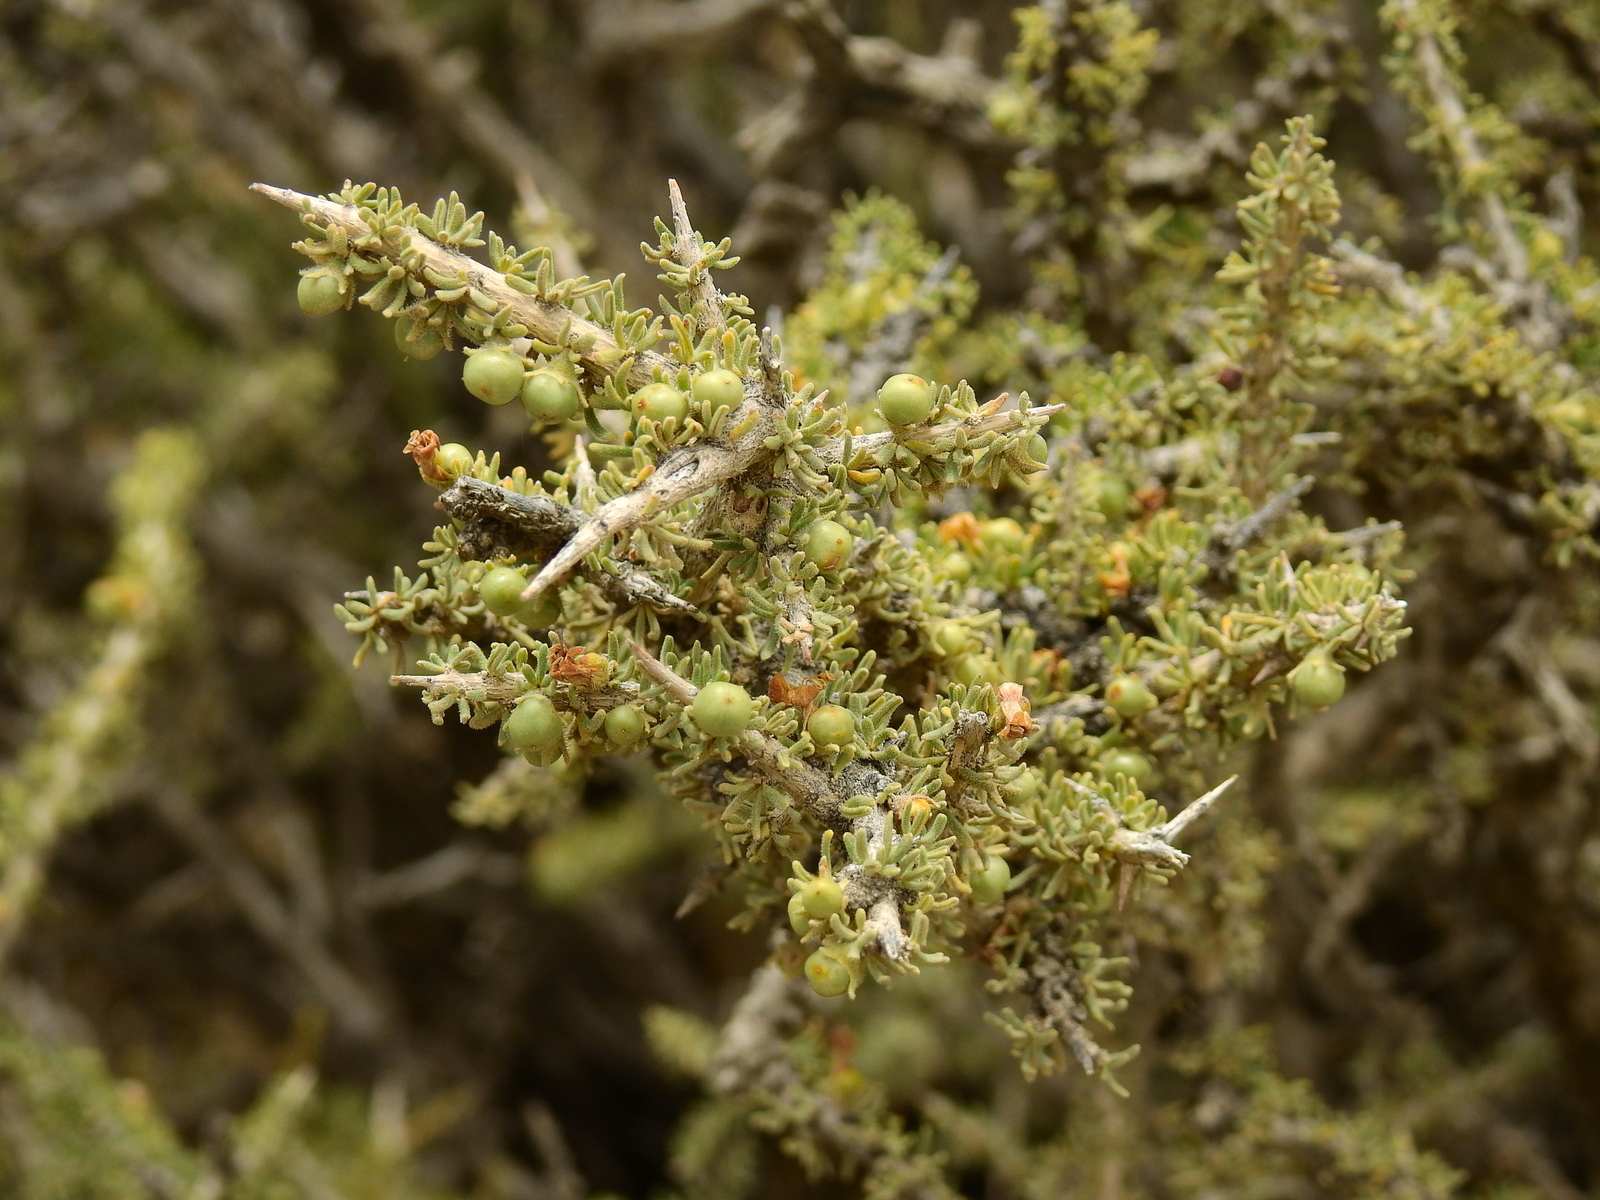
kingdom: Plantae
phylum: Tracheophyta
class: Magnoliopsida
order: Solanales
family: Solanaceae
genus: Lycium
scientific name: Lycium chanar
